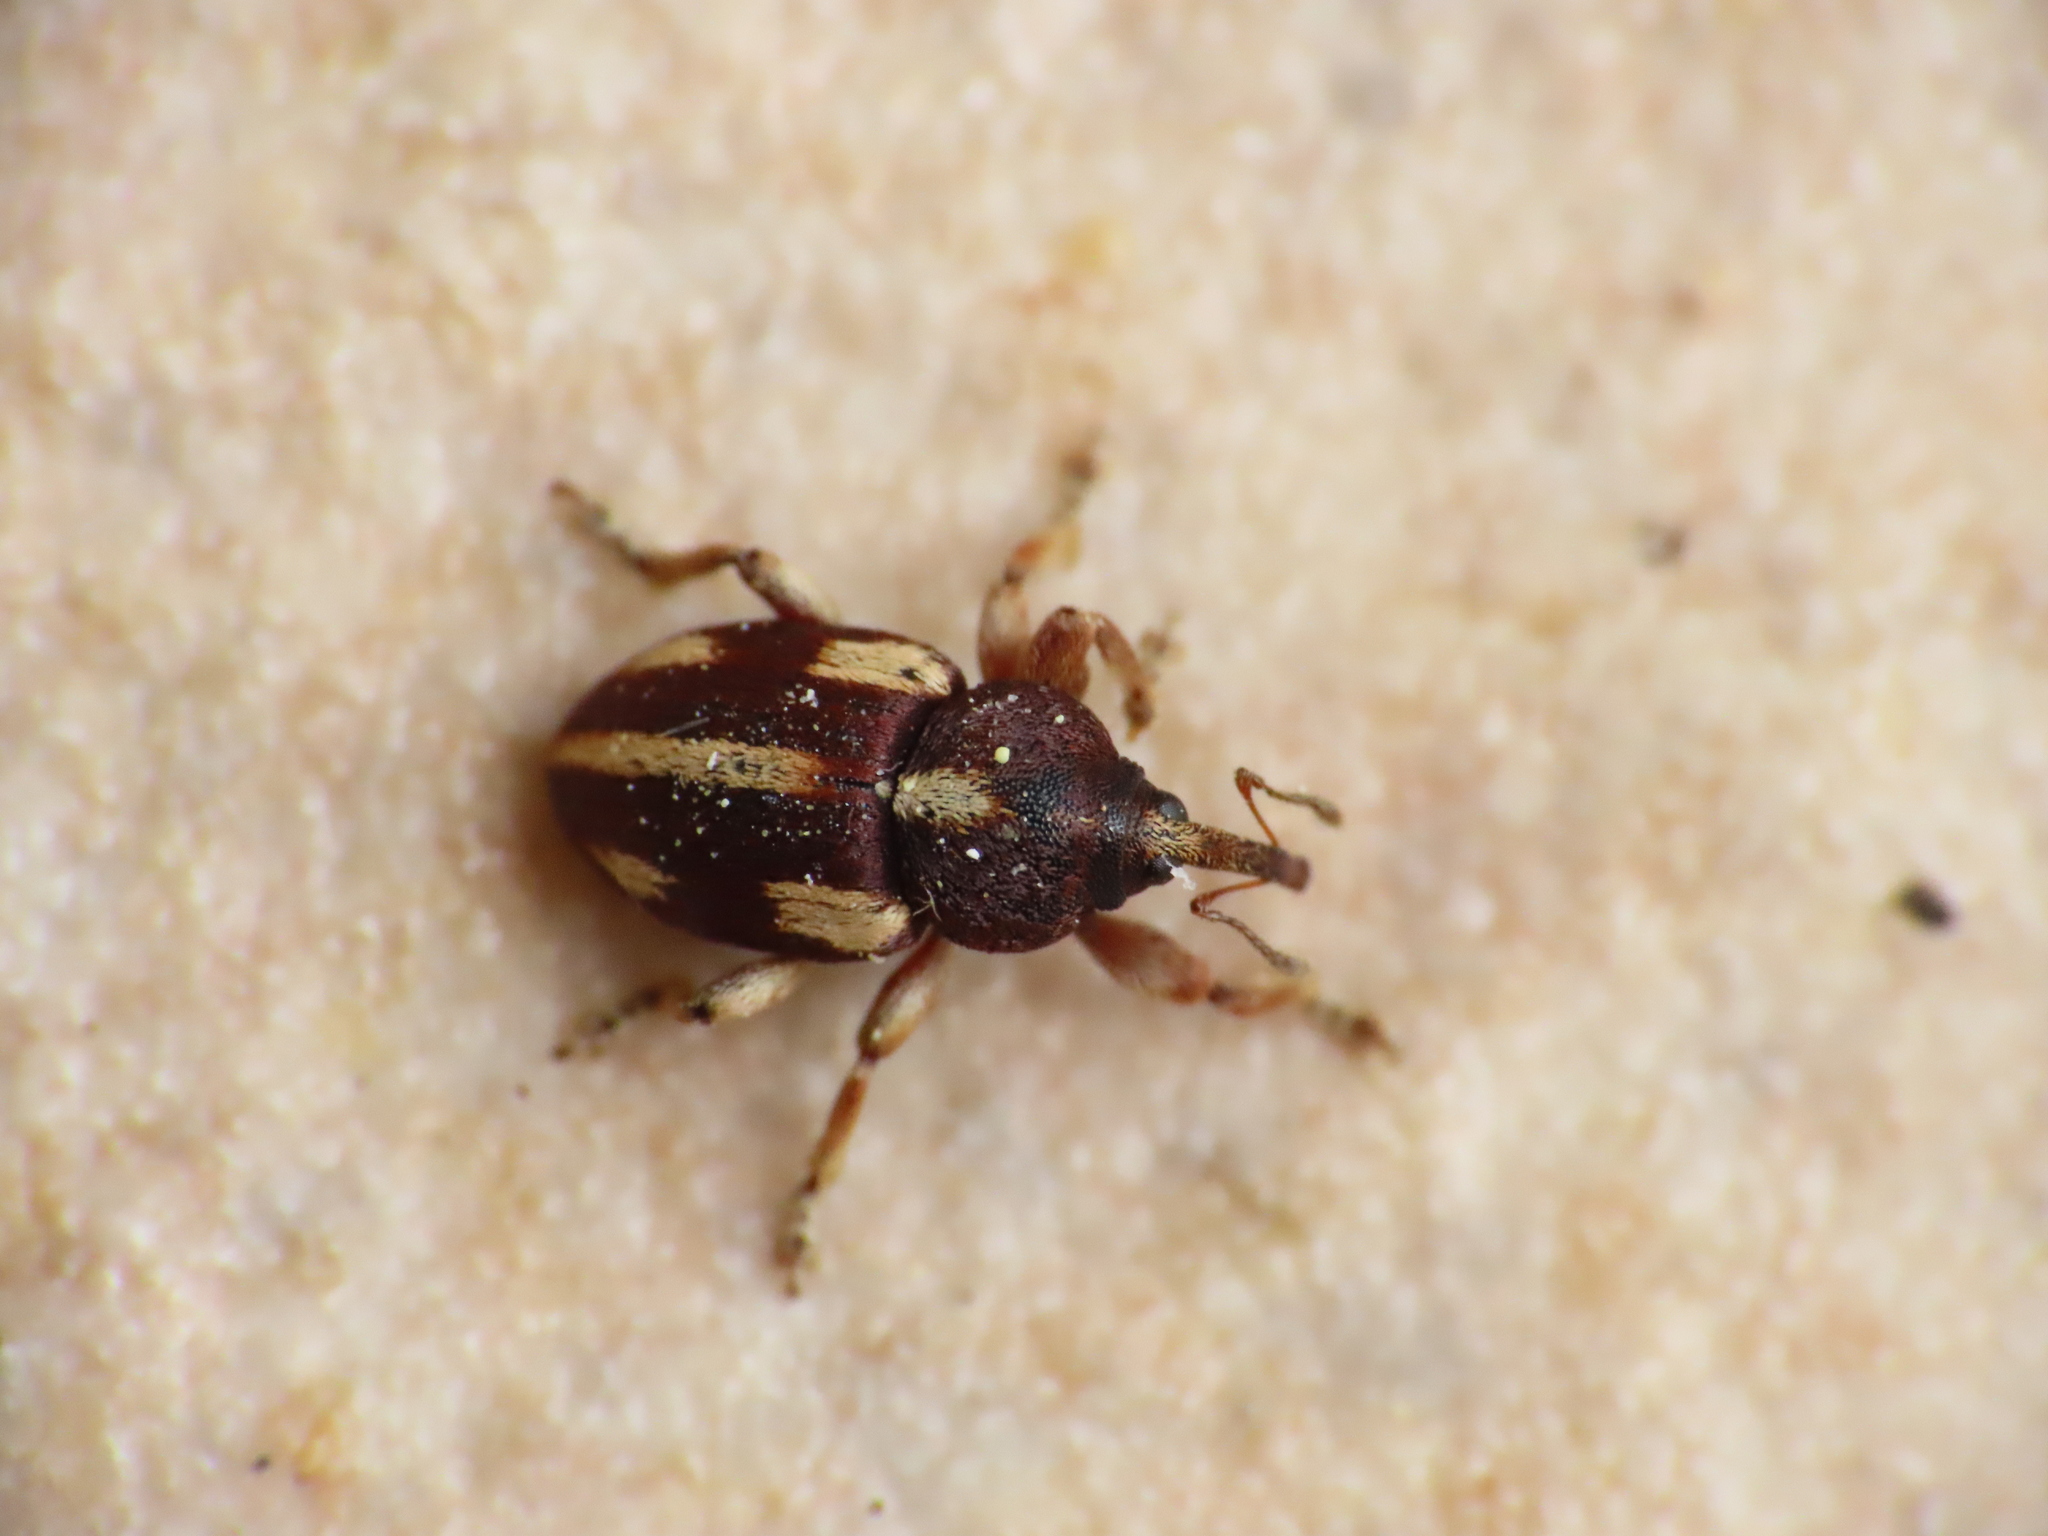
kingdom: Animalia
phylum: Arthropoda
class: Insecta
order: Coleoptera
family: Curculionidae
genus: Tychius
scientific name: Tychius quinquepunctatus
